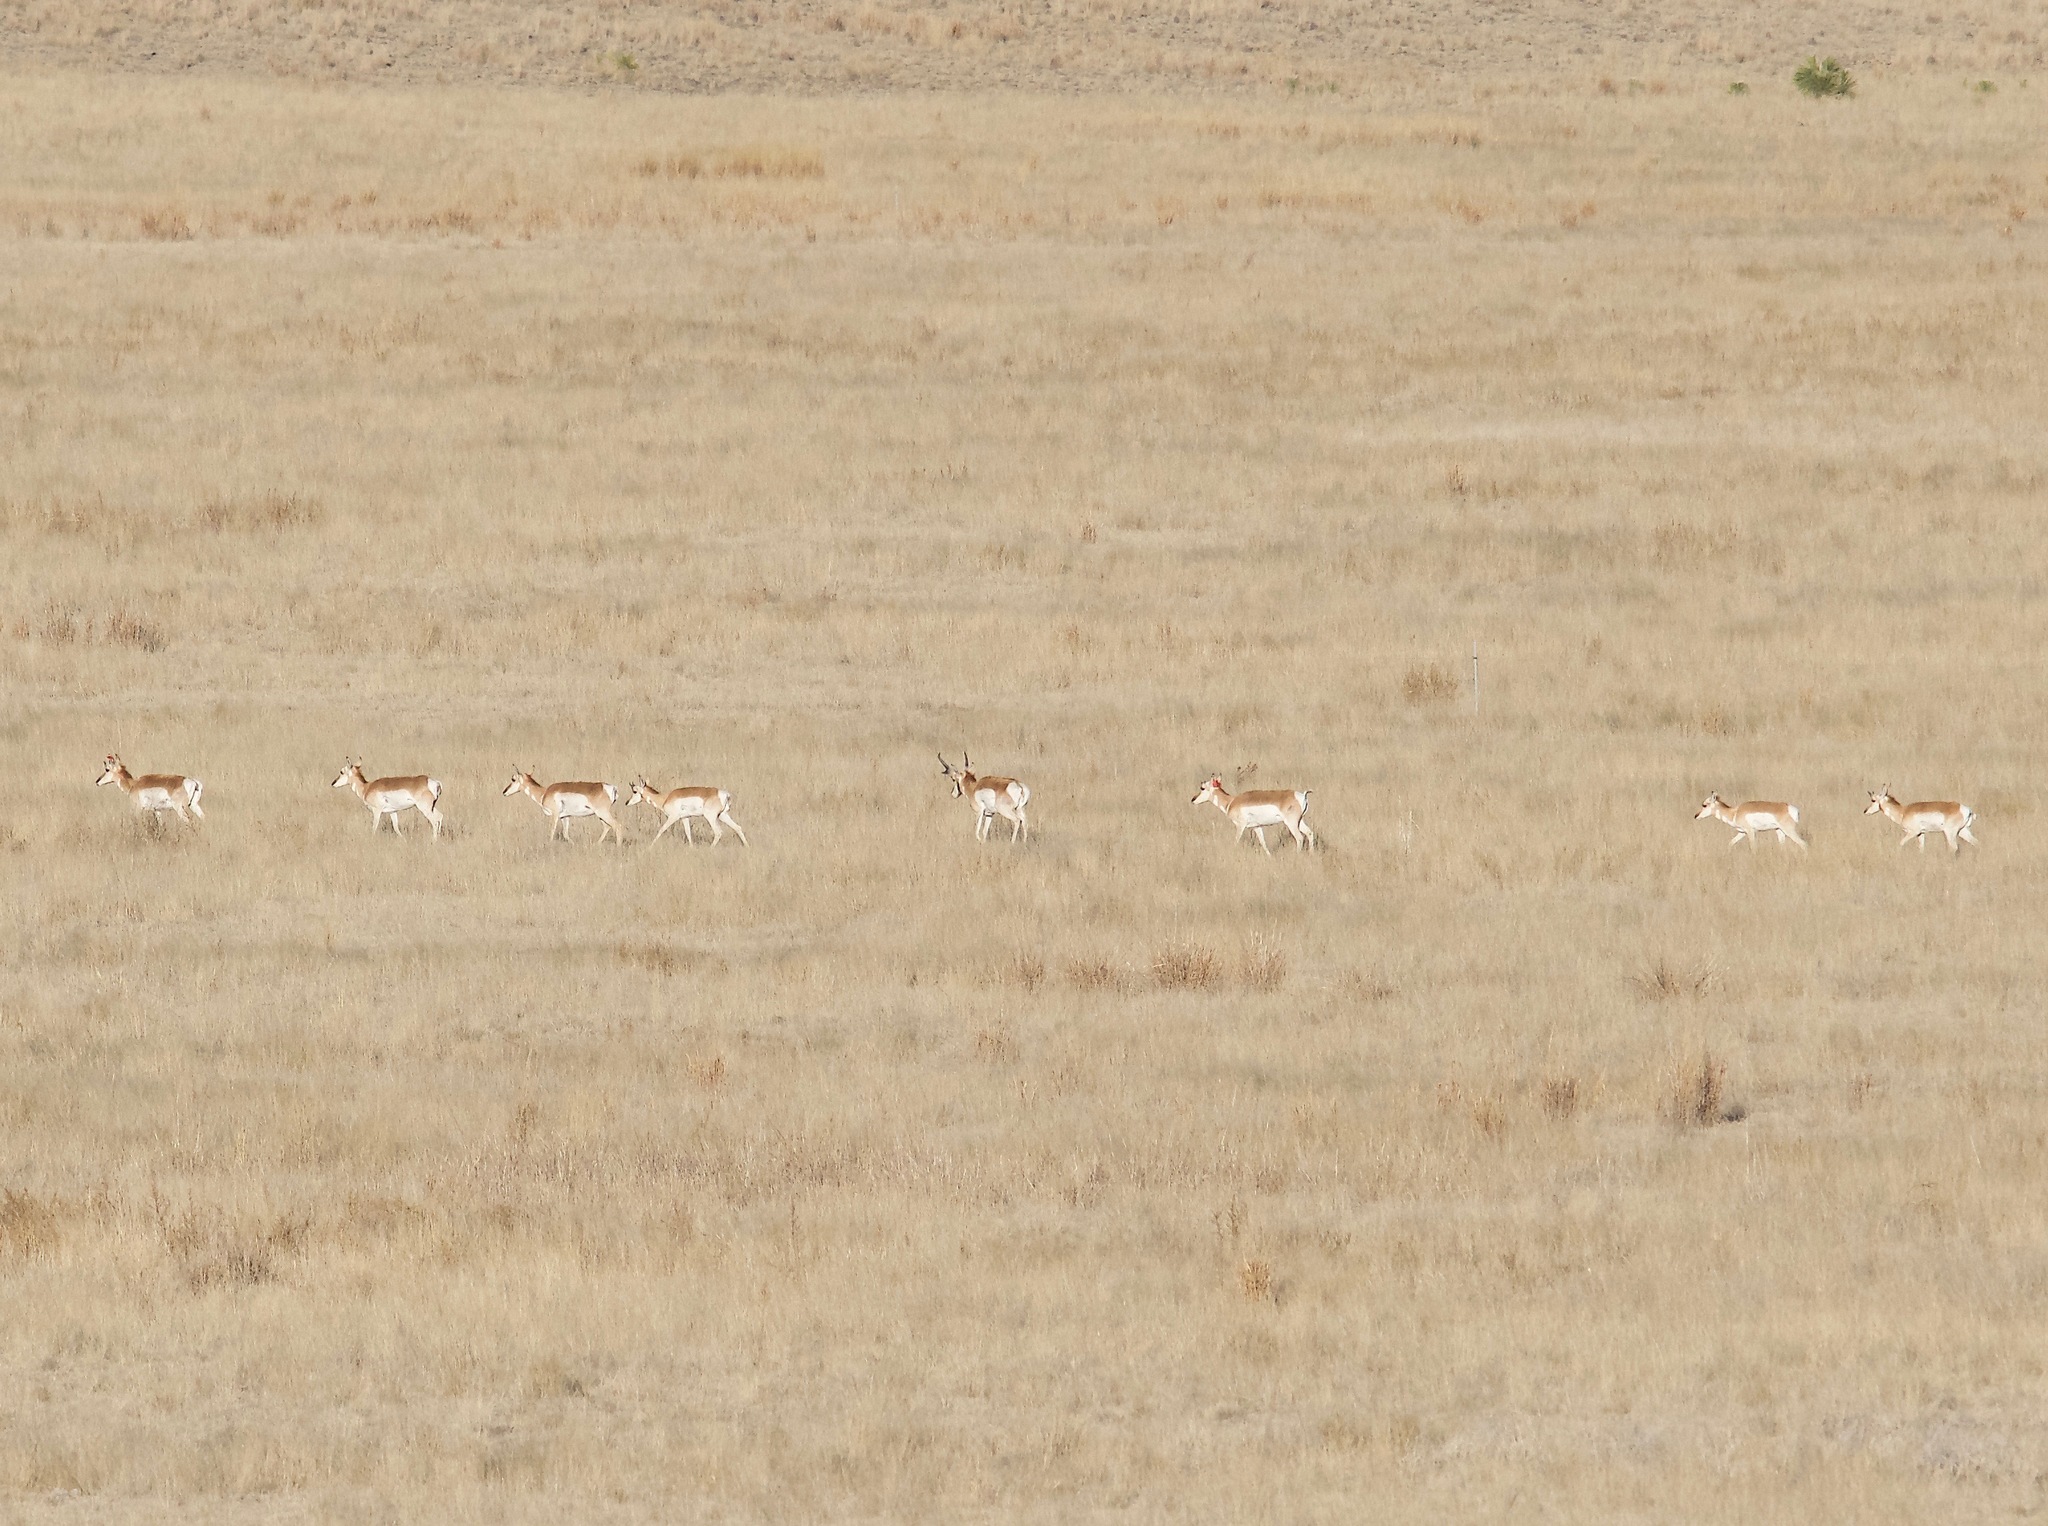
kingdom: Animalia
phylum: Chordata
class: Mammalia
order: Artiodactyla
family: Antilocapridae
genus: Antilocapra
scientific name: Antilocapra americana
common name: Pronghorn
